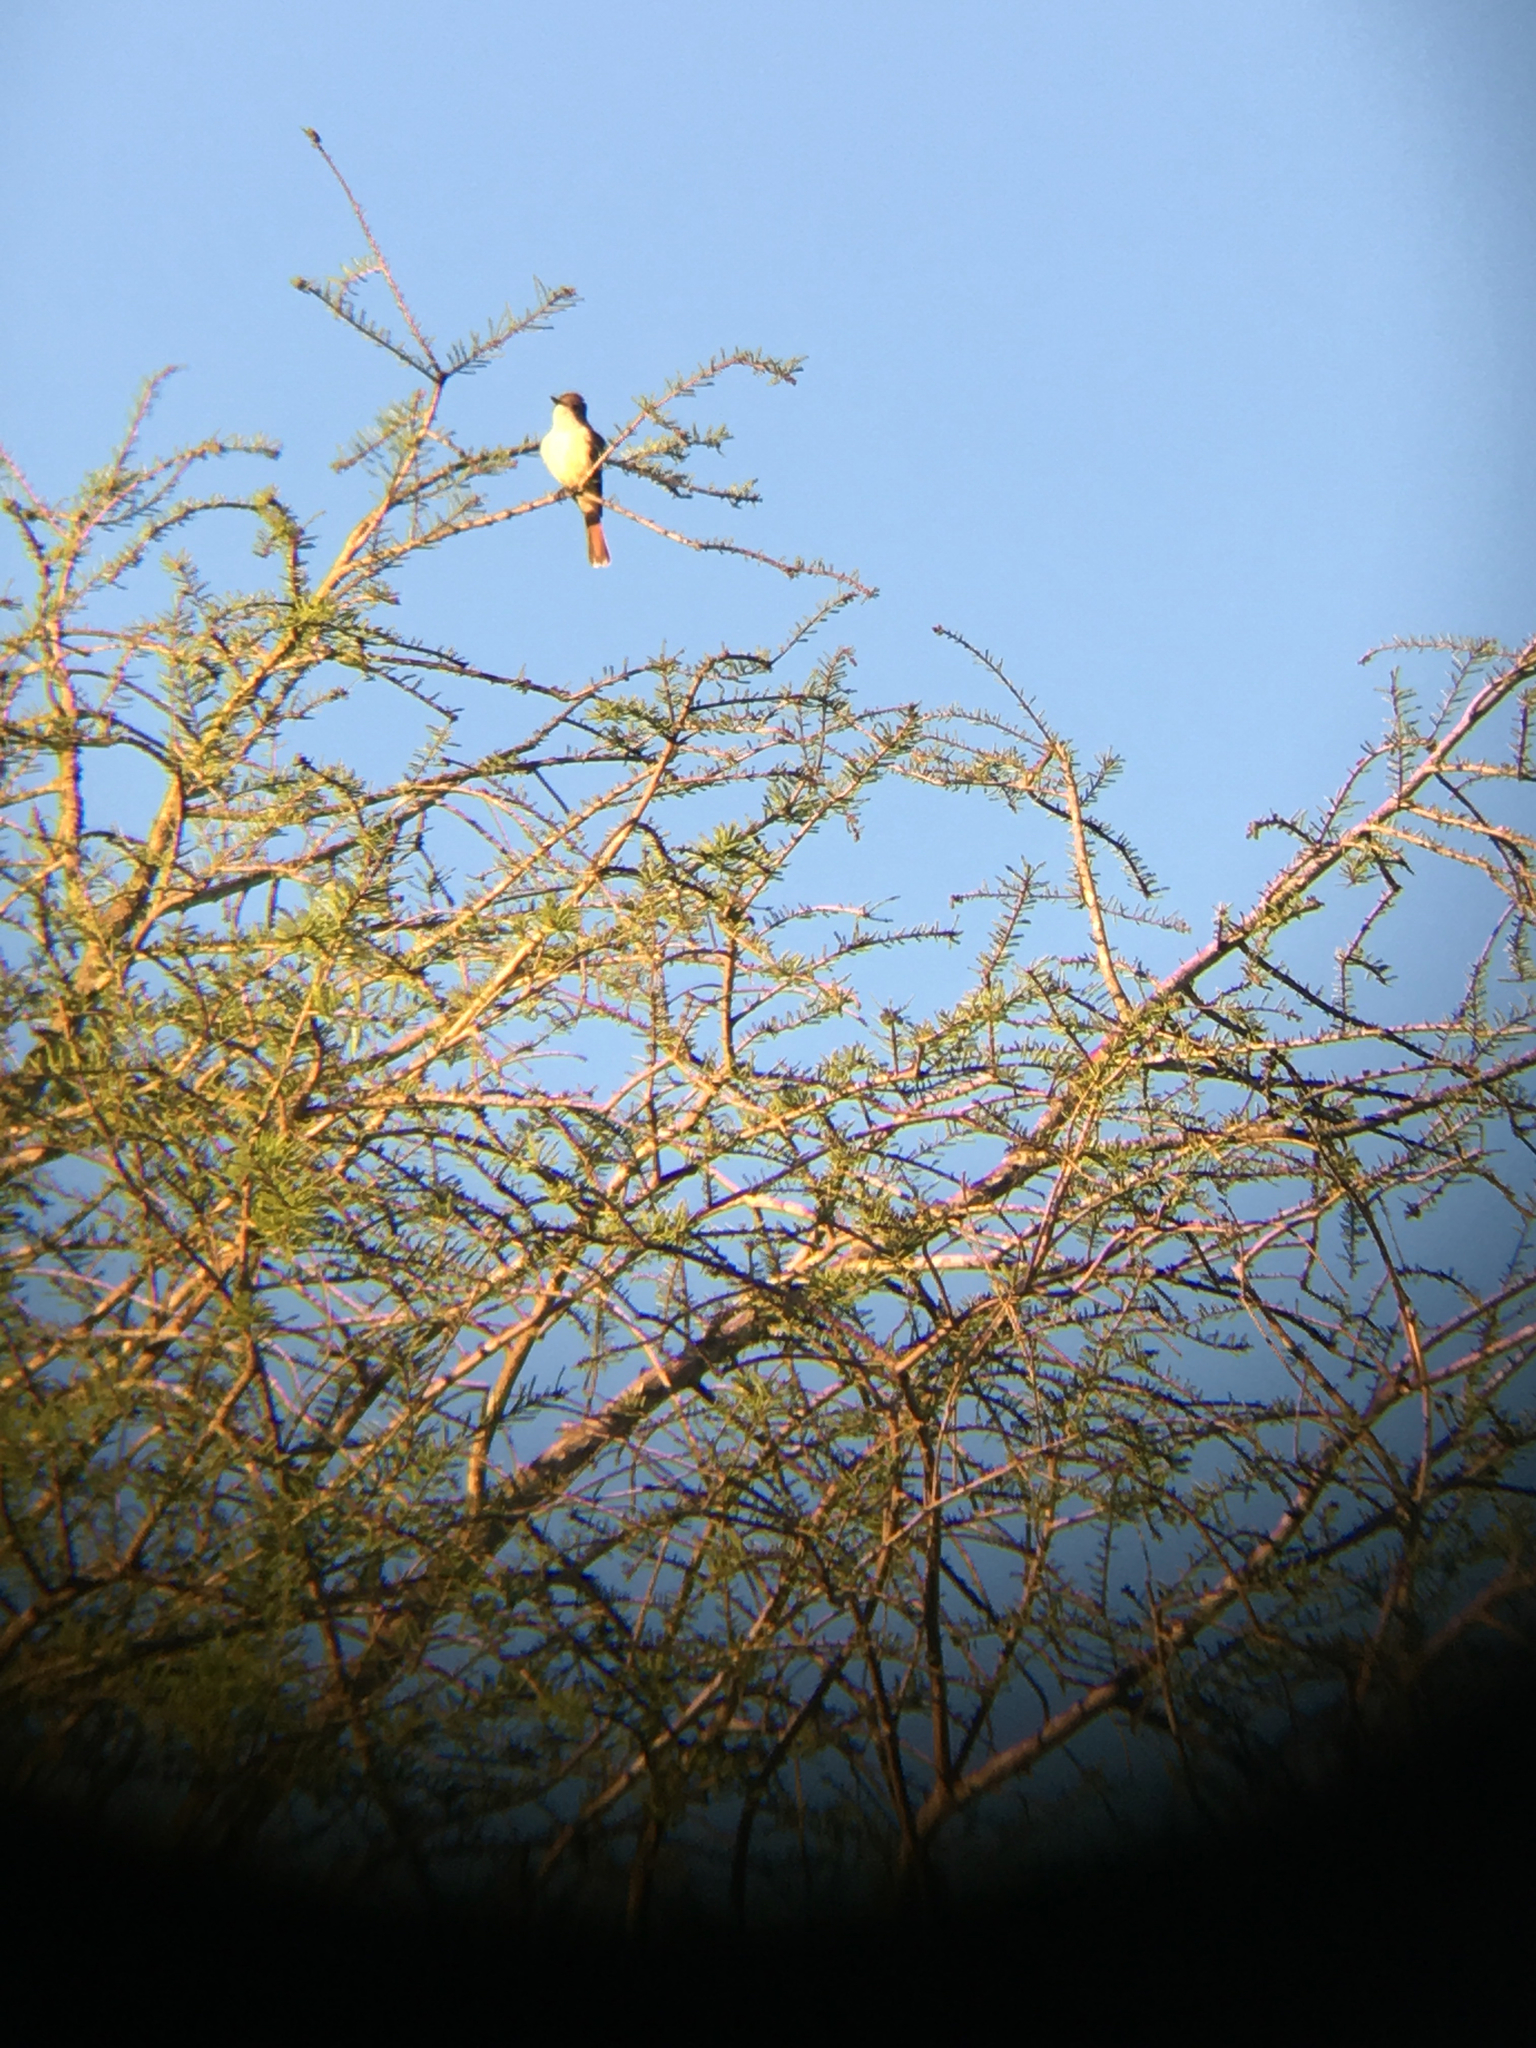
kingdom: Animalia
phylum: Chordata
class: Aves
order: Passeriformes
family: Tyrannidae
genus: Myiarchus
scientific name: Myiarchus cinerascens
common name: Ash-throated flycatcher
